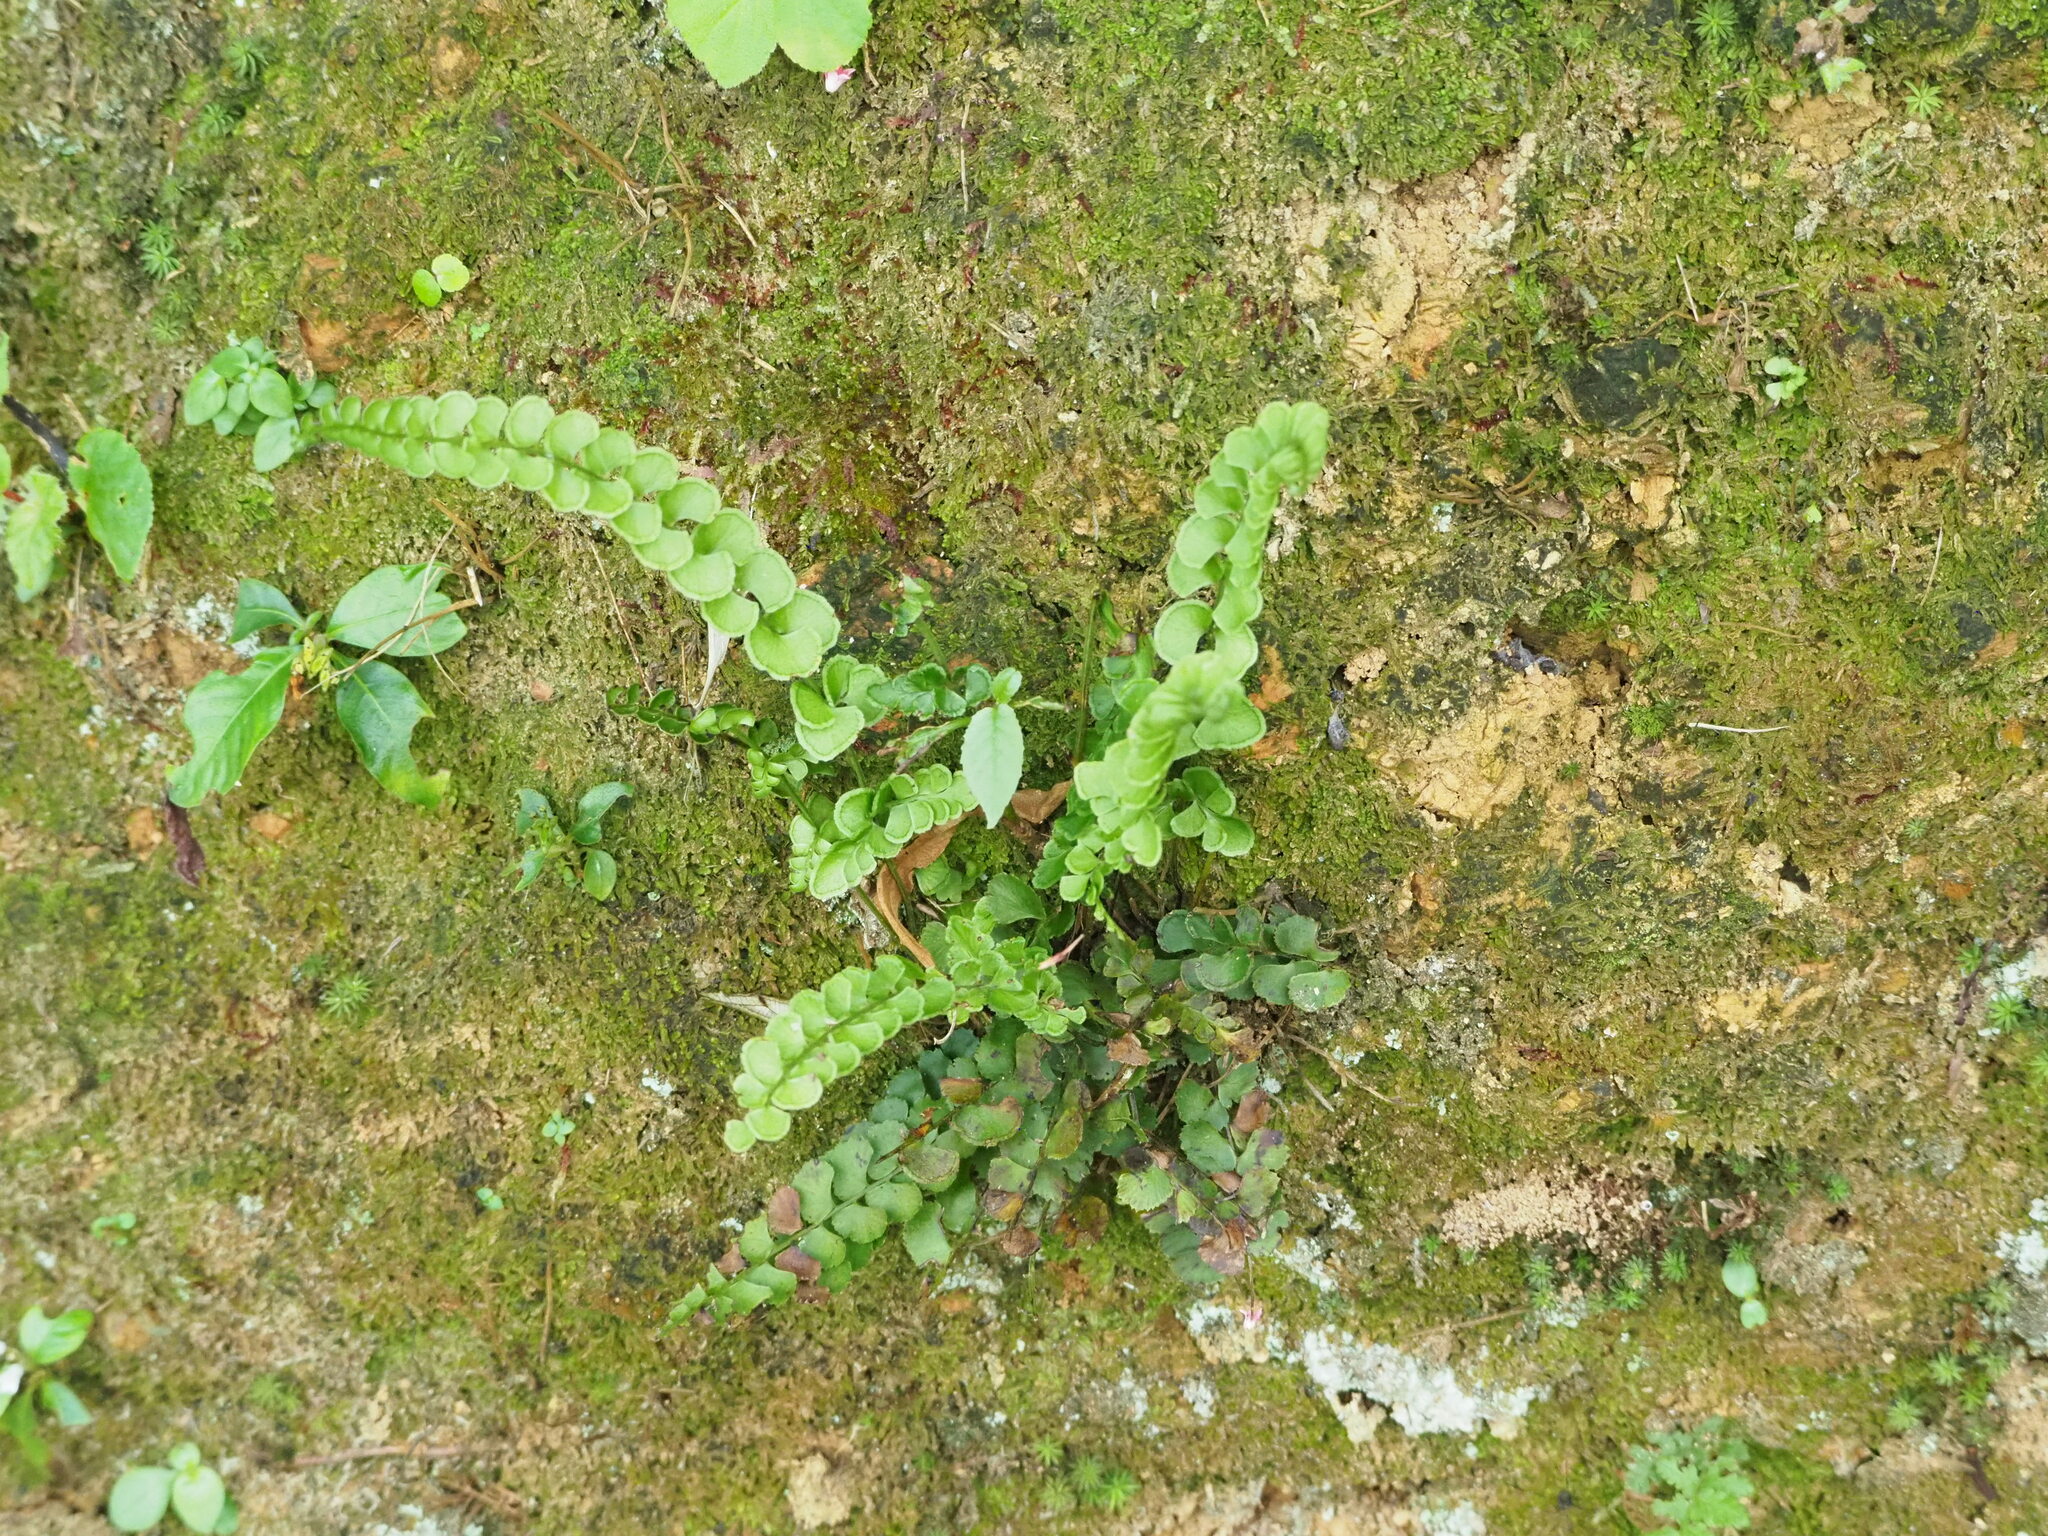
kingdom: Plantae
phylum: Tracheophyta
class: Polypodiopsida
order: Polypodiales
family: Lindsaeaceae
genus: Lindsaea
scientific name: Lindsaea orbiculata
